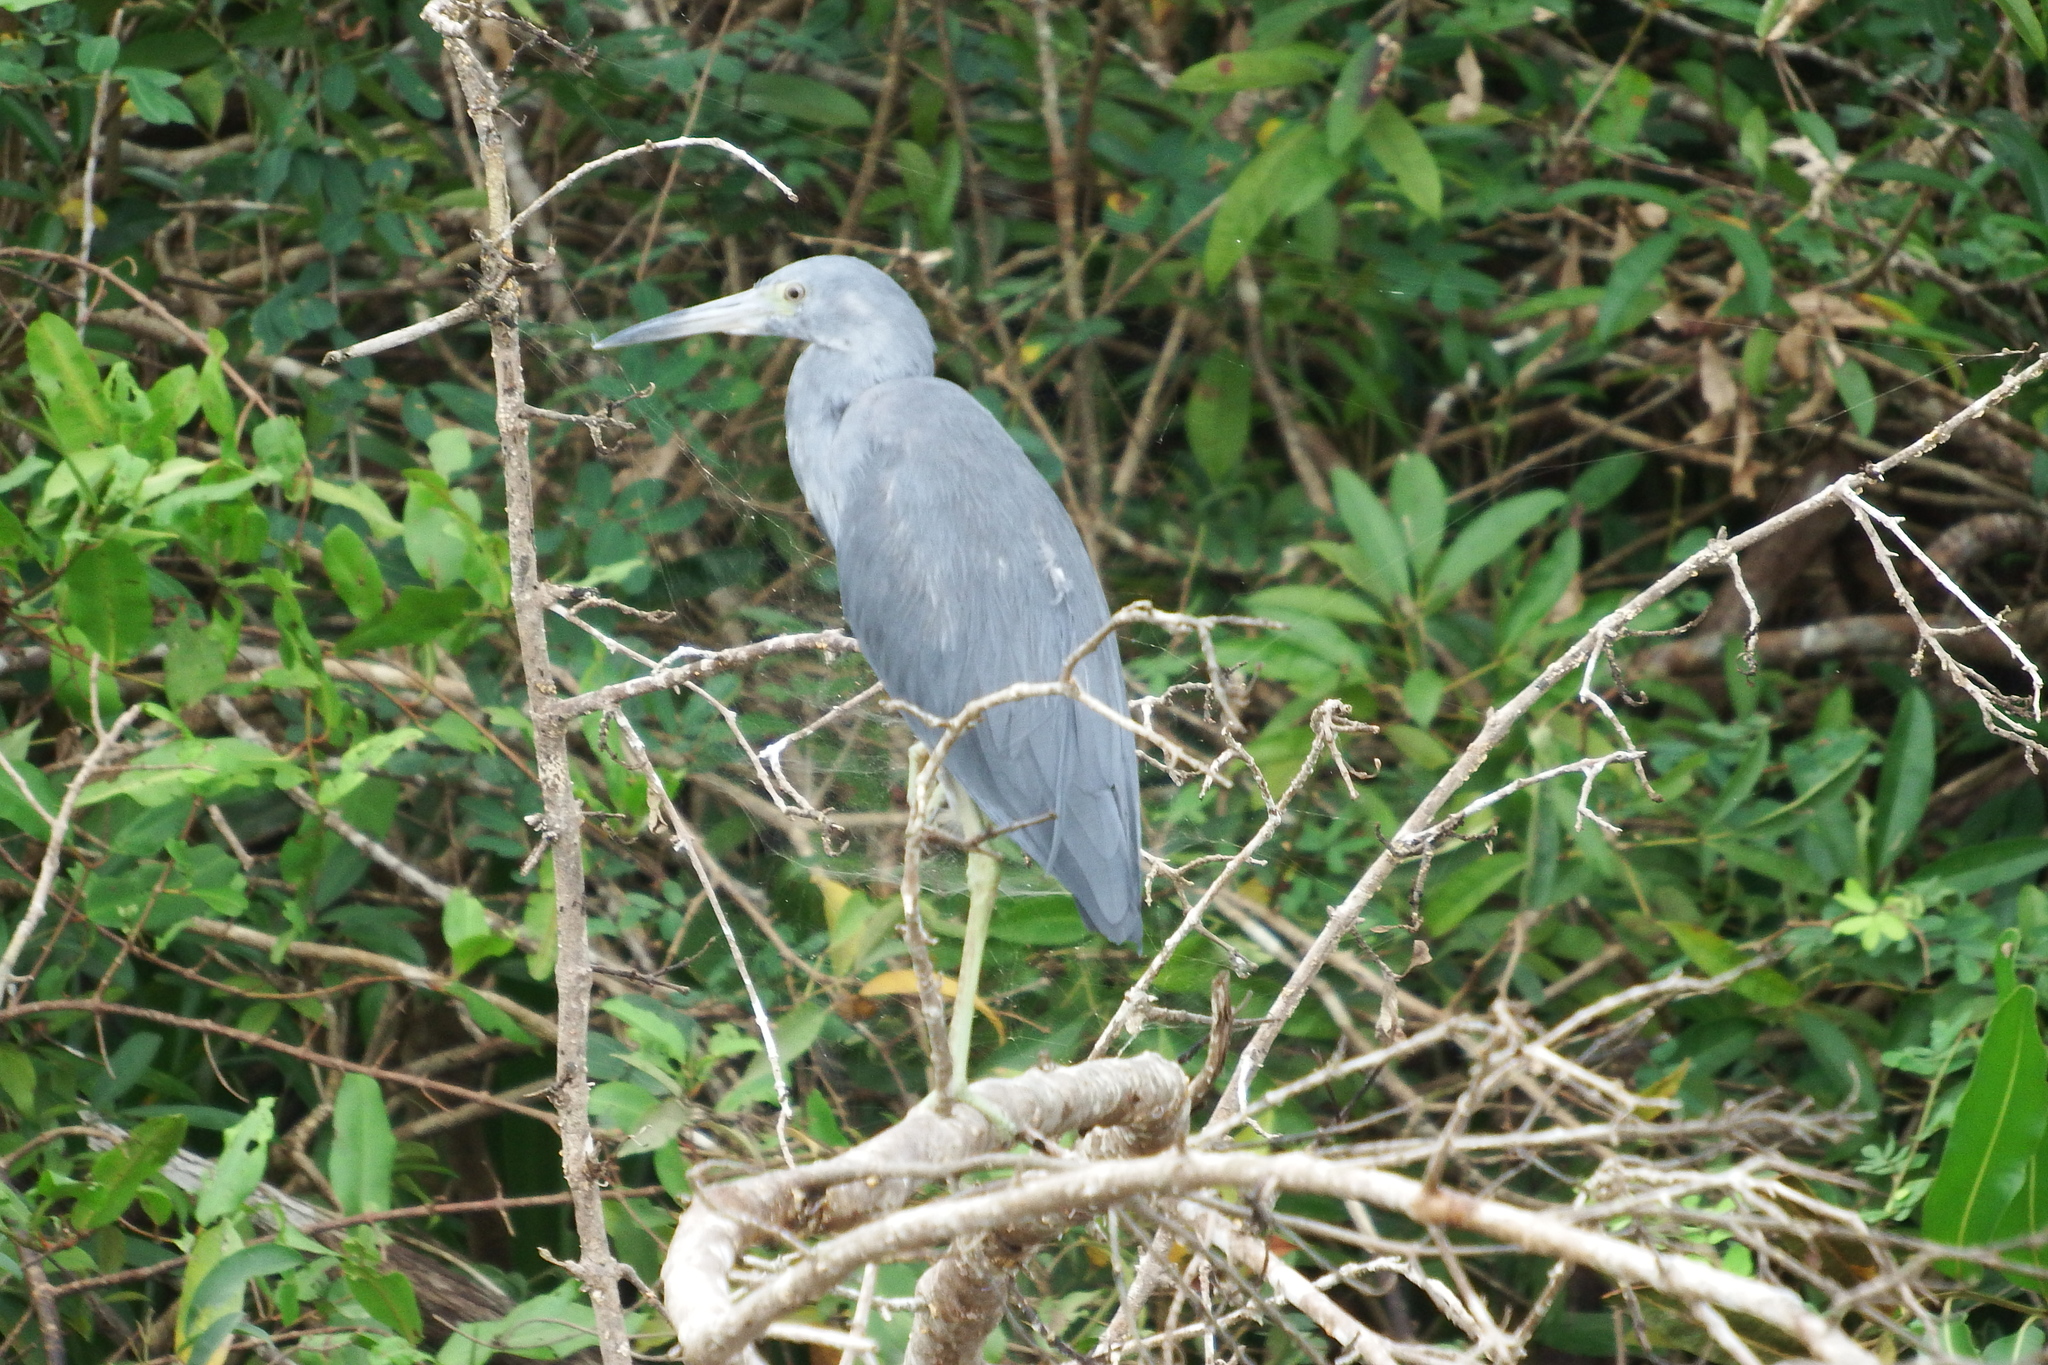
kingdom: Animalia
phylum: Chordata
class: Aves
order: Pelecaniformes
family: Ardeidae
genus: Egretta
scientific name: Egretta caerulea
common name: Little blue heron
